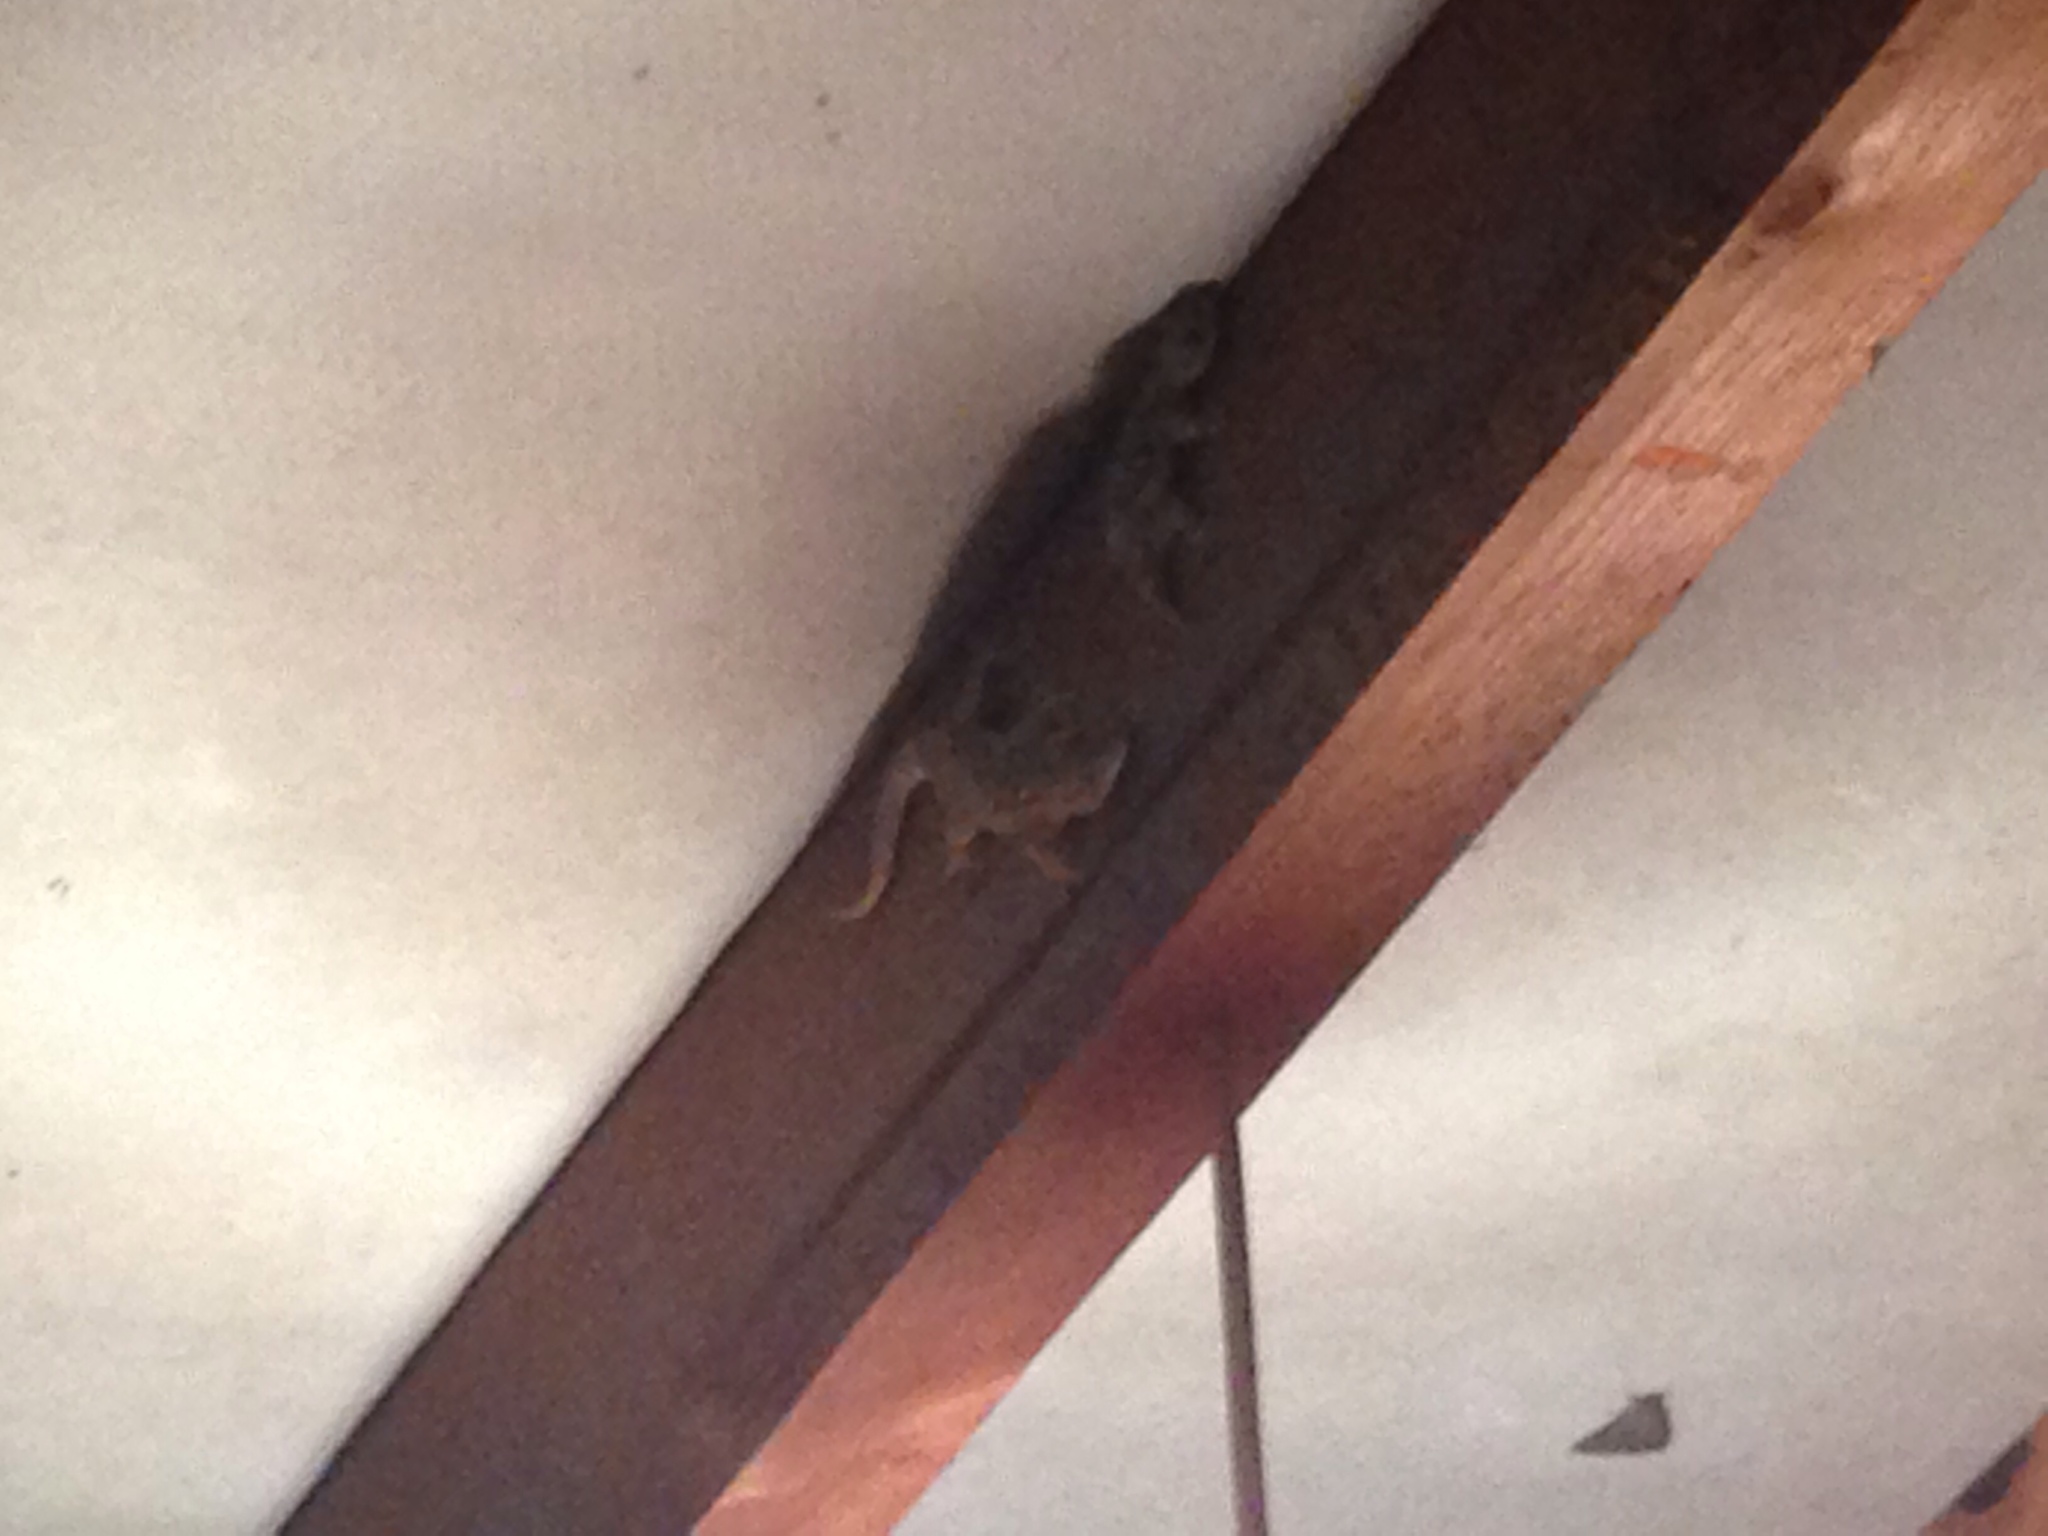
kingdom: Animalia
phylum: Chordata
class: Squamata
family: Phyllodactylidae
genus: Tarentola
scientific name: Tarentola mauritanica
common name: Moorish gecko
